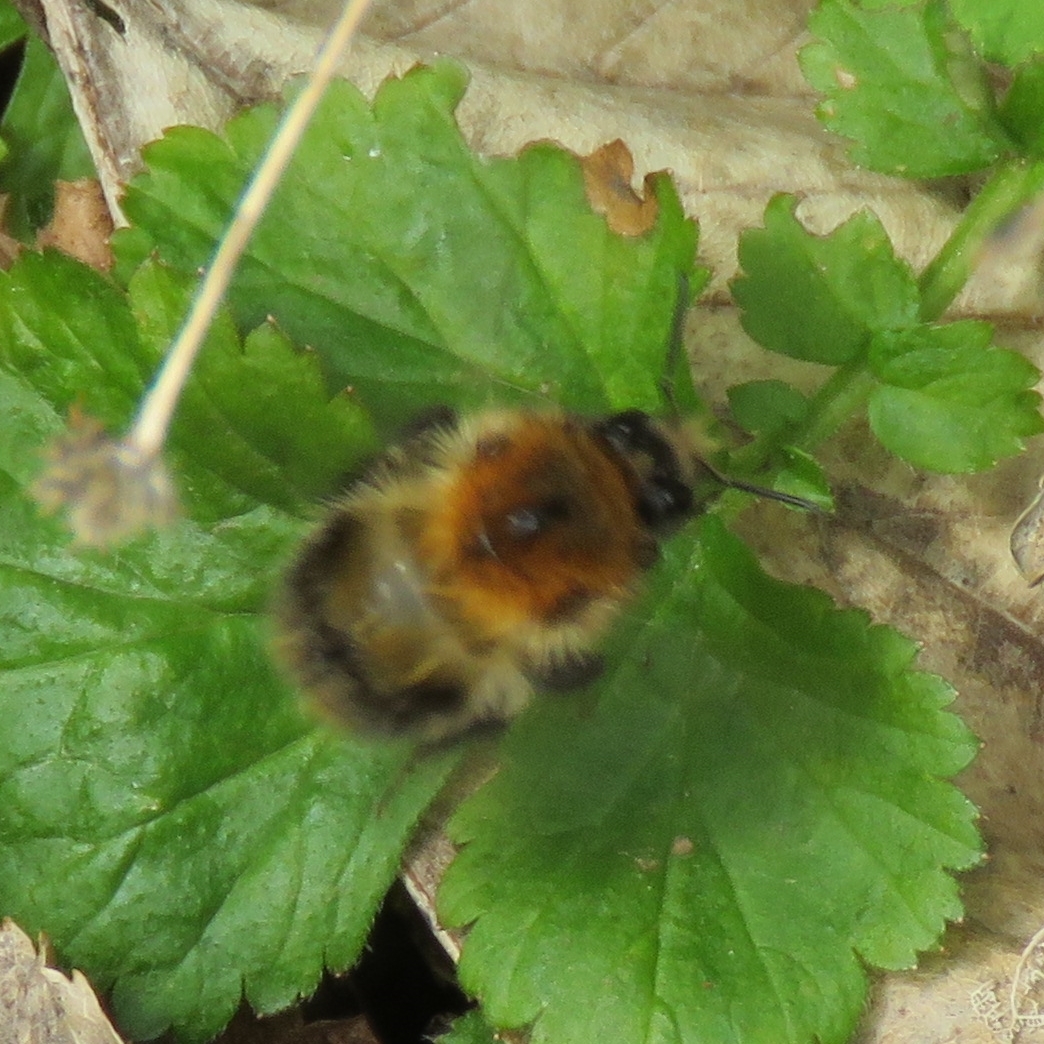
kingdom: Animalia
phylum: Arthropoda
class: Insecta
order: Hymenoptera
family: Apidae
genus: Bombus
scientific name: Bombus pascuorum
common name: Common carder bee
